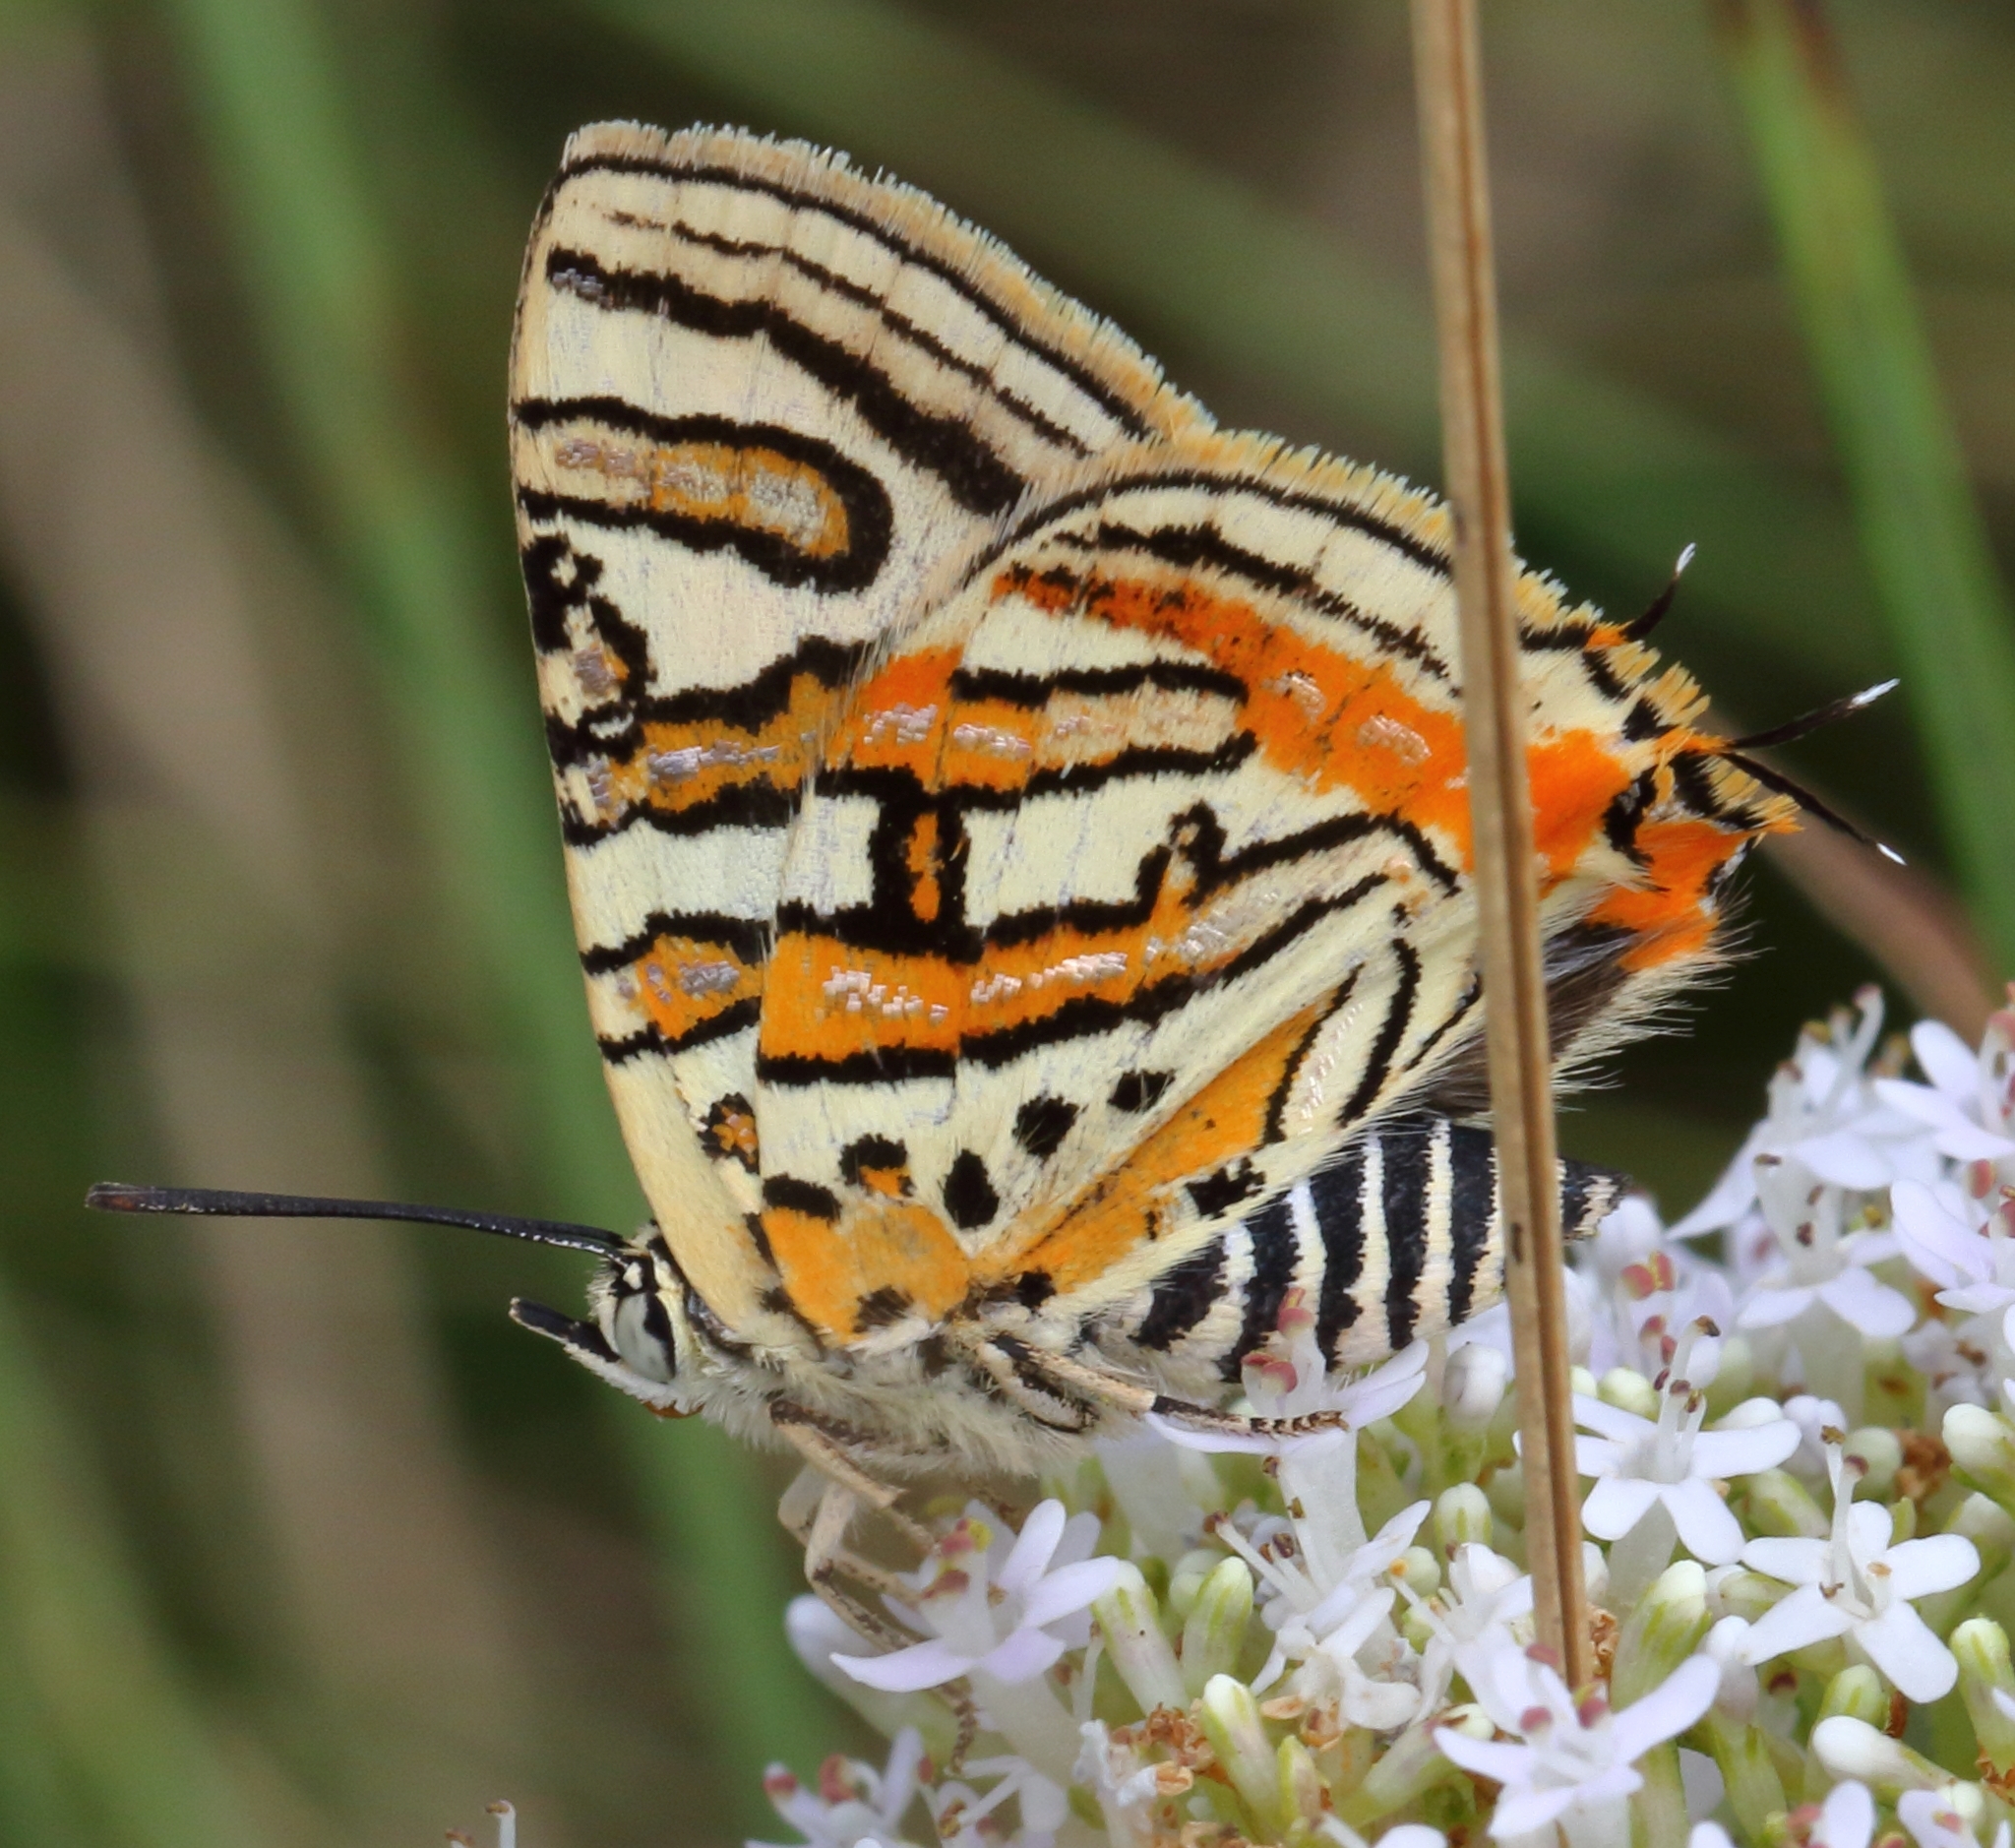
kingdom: Animalia
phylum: Arthropoda
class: Insecta
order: Lepidoptera
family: Lycaenidae
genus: Cigaritis
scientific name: Cigaritis mozambica
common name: Mozambique bar
